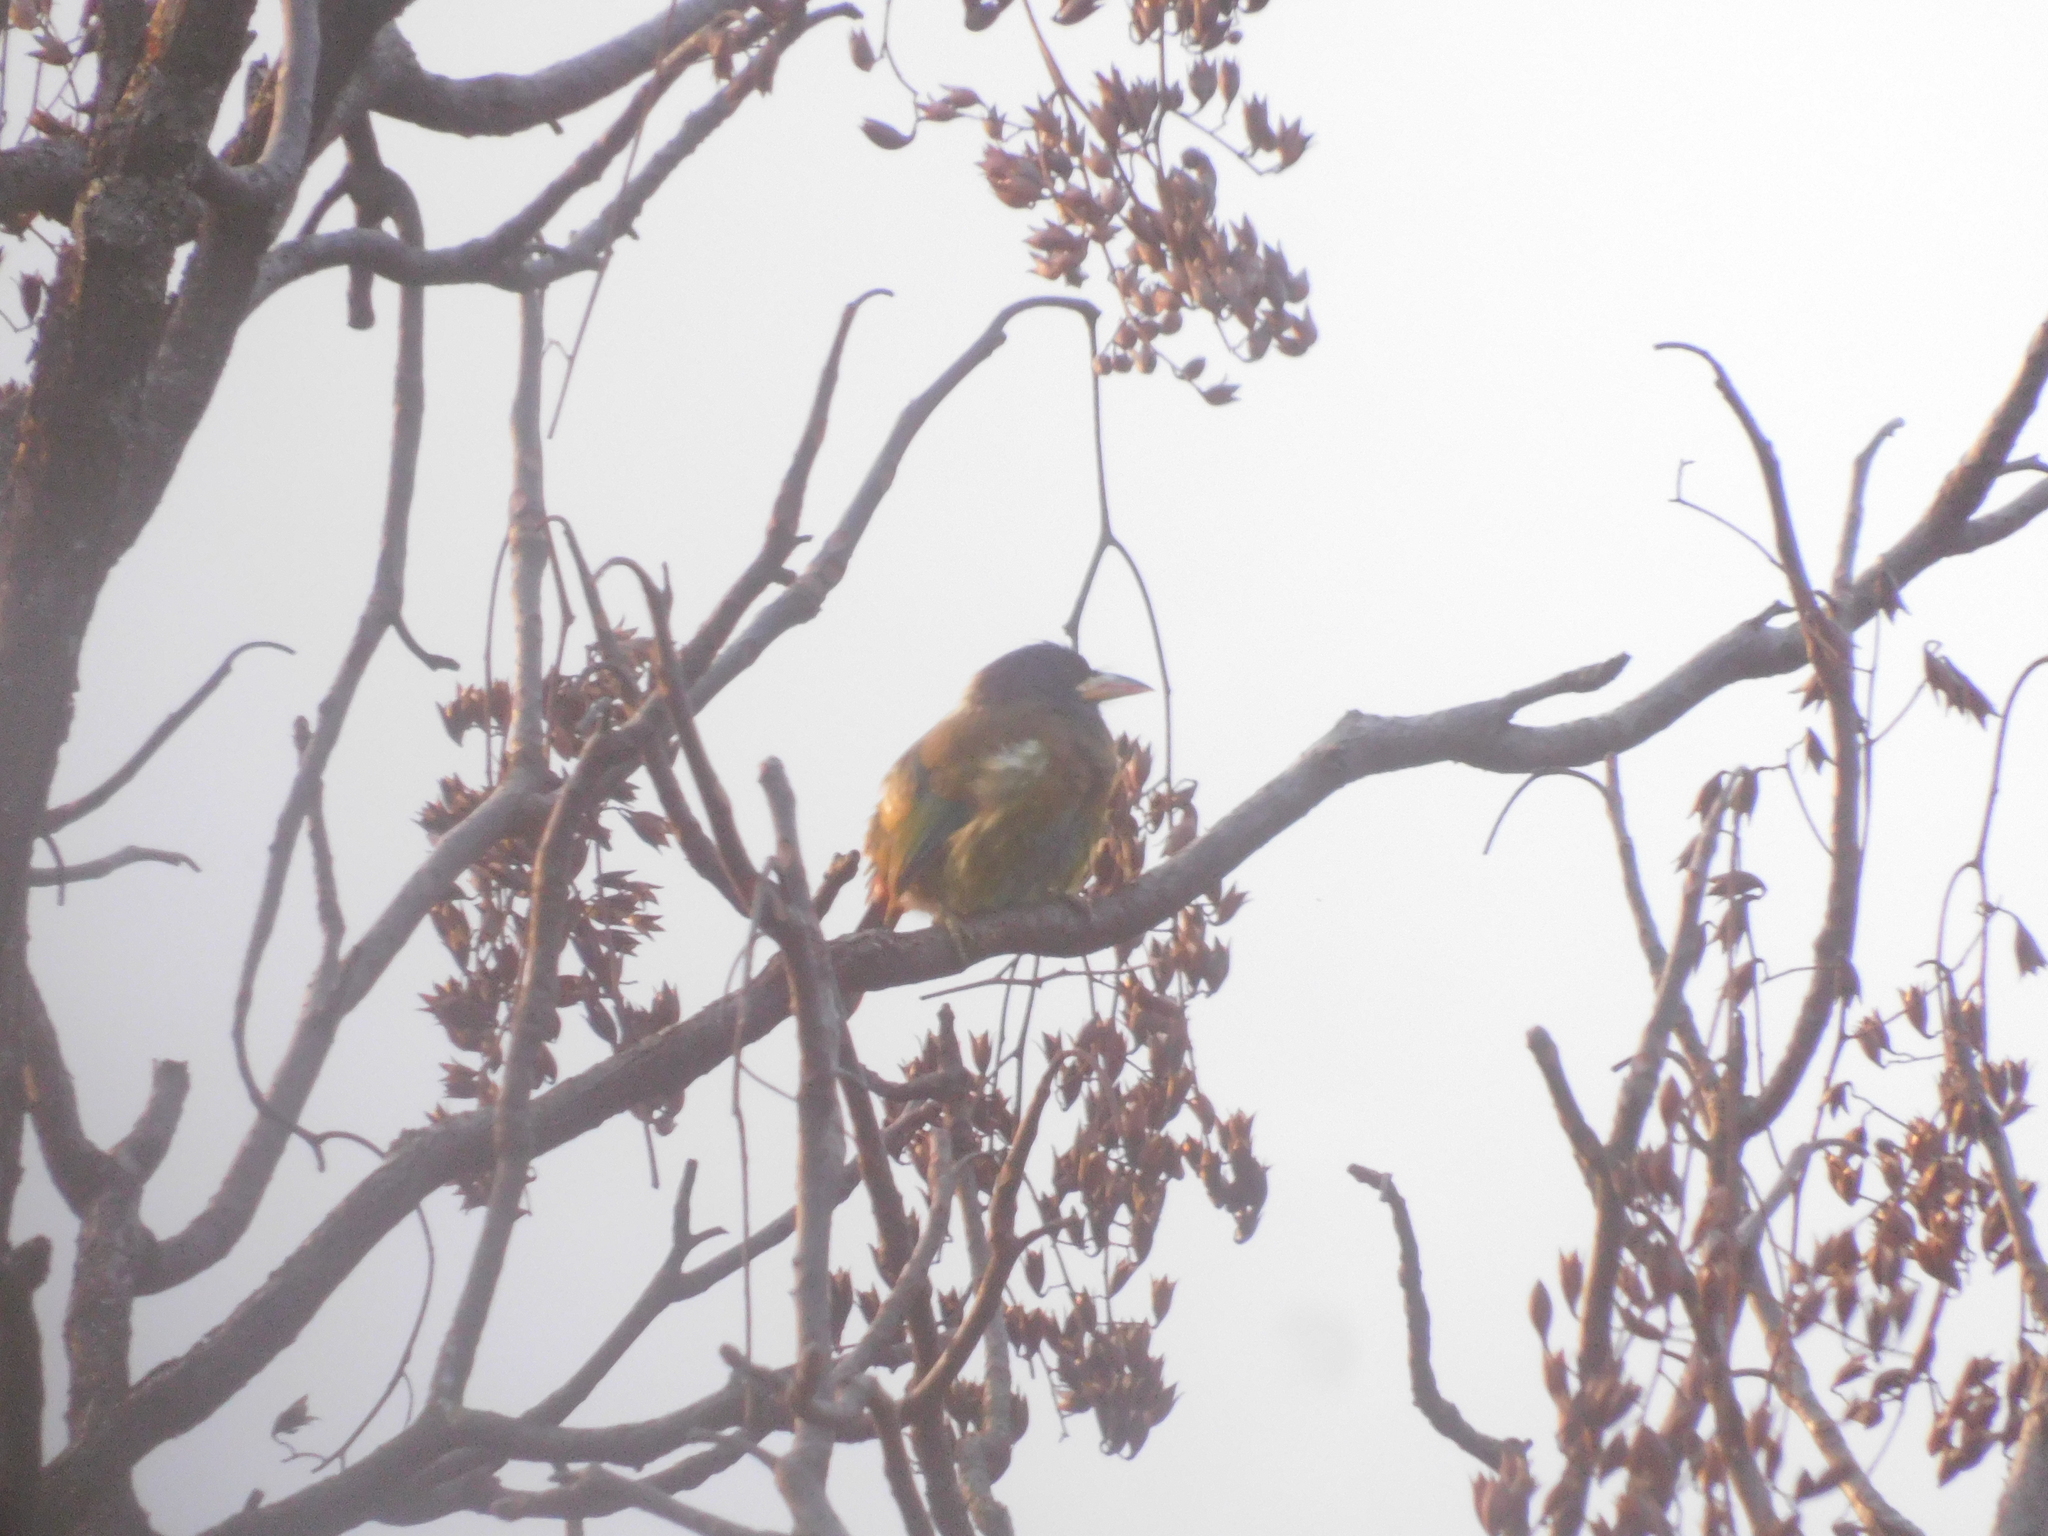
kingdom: Animalia
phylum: Chordata
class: Aves
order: Piciformes
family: Megalaimidae
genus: Psilopogon
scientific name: Psilopogon virens
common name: Great barbet
